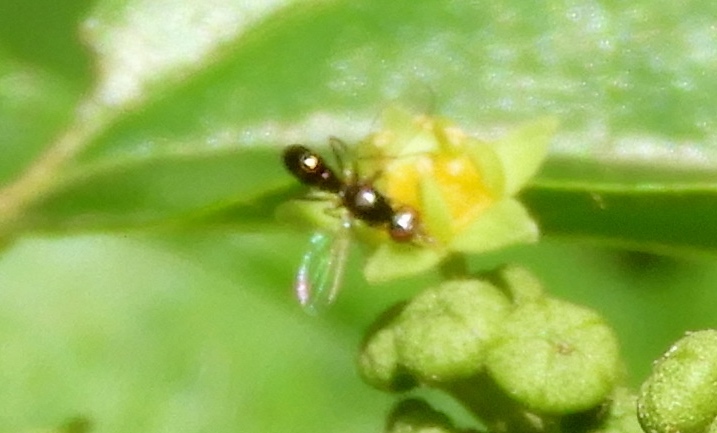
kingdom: Animalia
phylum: Arthropoda
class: Insecta
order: Diptera
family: Sepsidae
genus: Sepsis
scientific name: Sepsis
